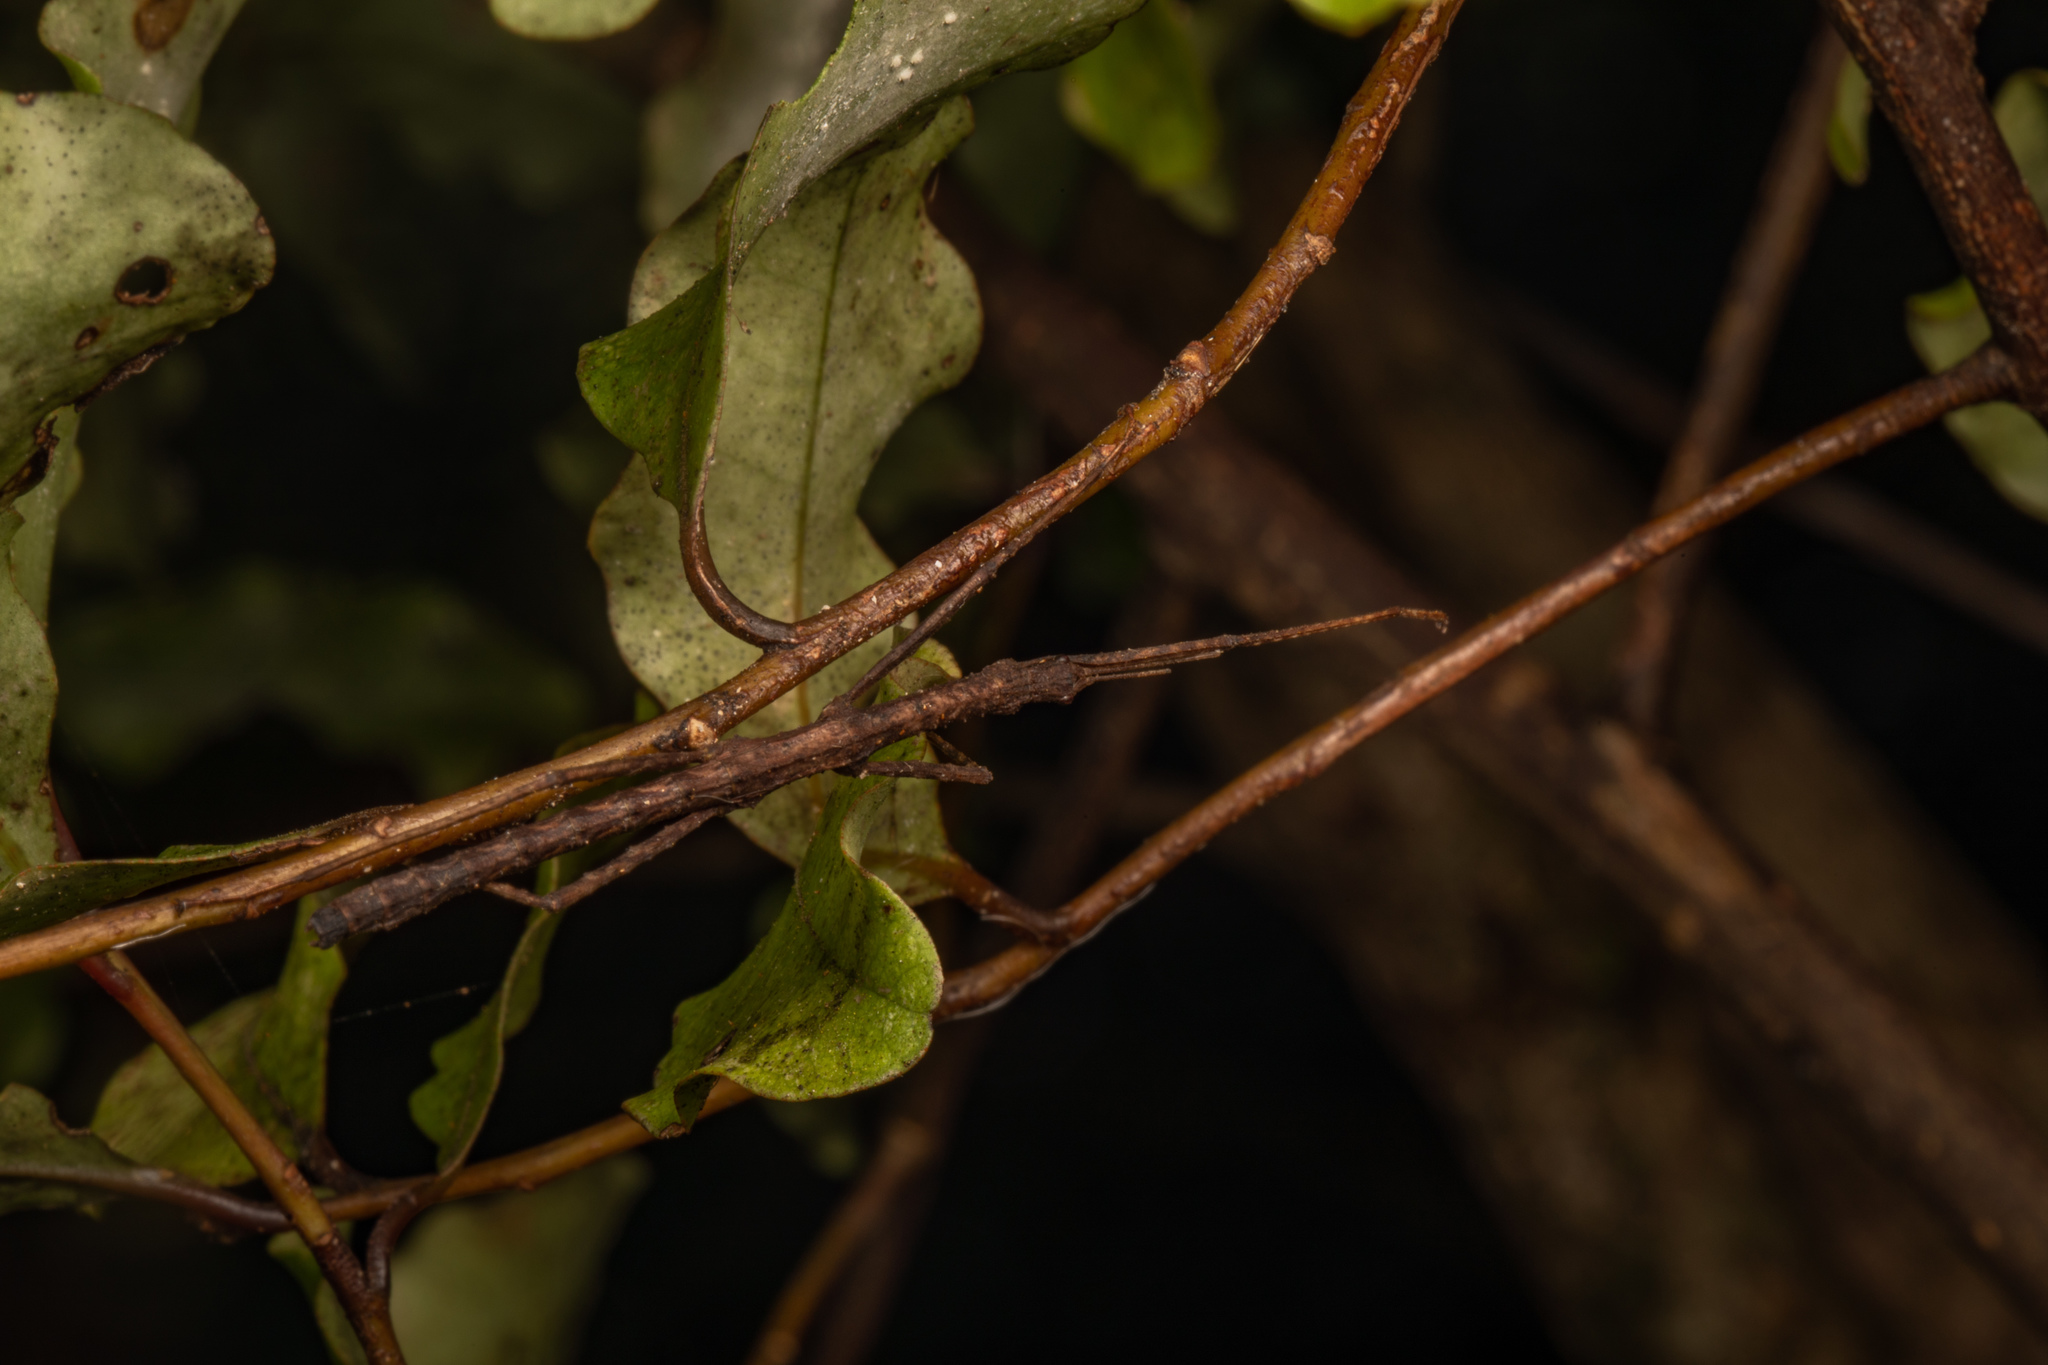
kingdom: Animalia
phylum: Arthropoda
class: Insecta
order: Phasmida
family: Phasmatidae
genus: Spinotectarchus
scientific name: Spinotectarchus acornutus
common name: The spiny ridge-backed stick insect
